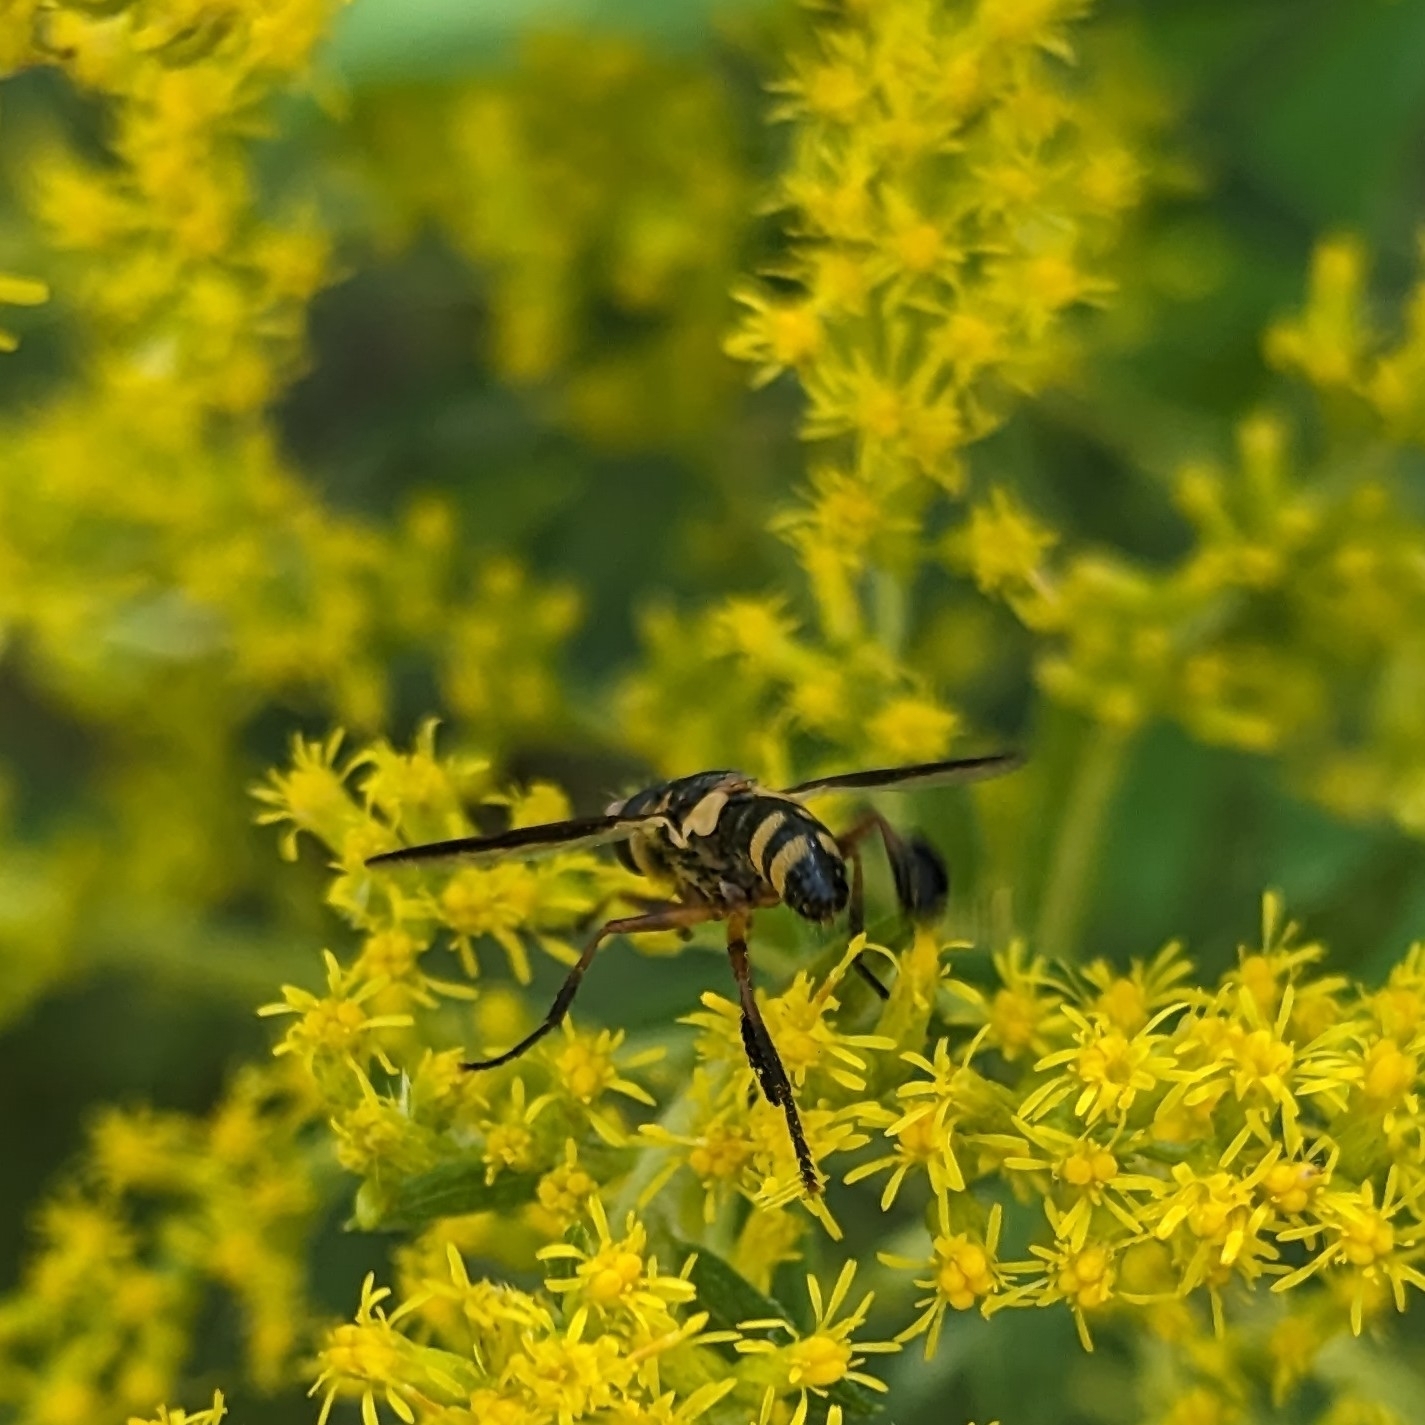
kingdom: Animalia
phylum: Arthropoda
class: Insecta
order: Diptera
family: Tachinidae
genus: Trichopoda
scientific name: Trichopoda plumipes
